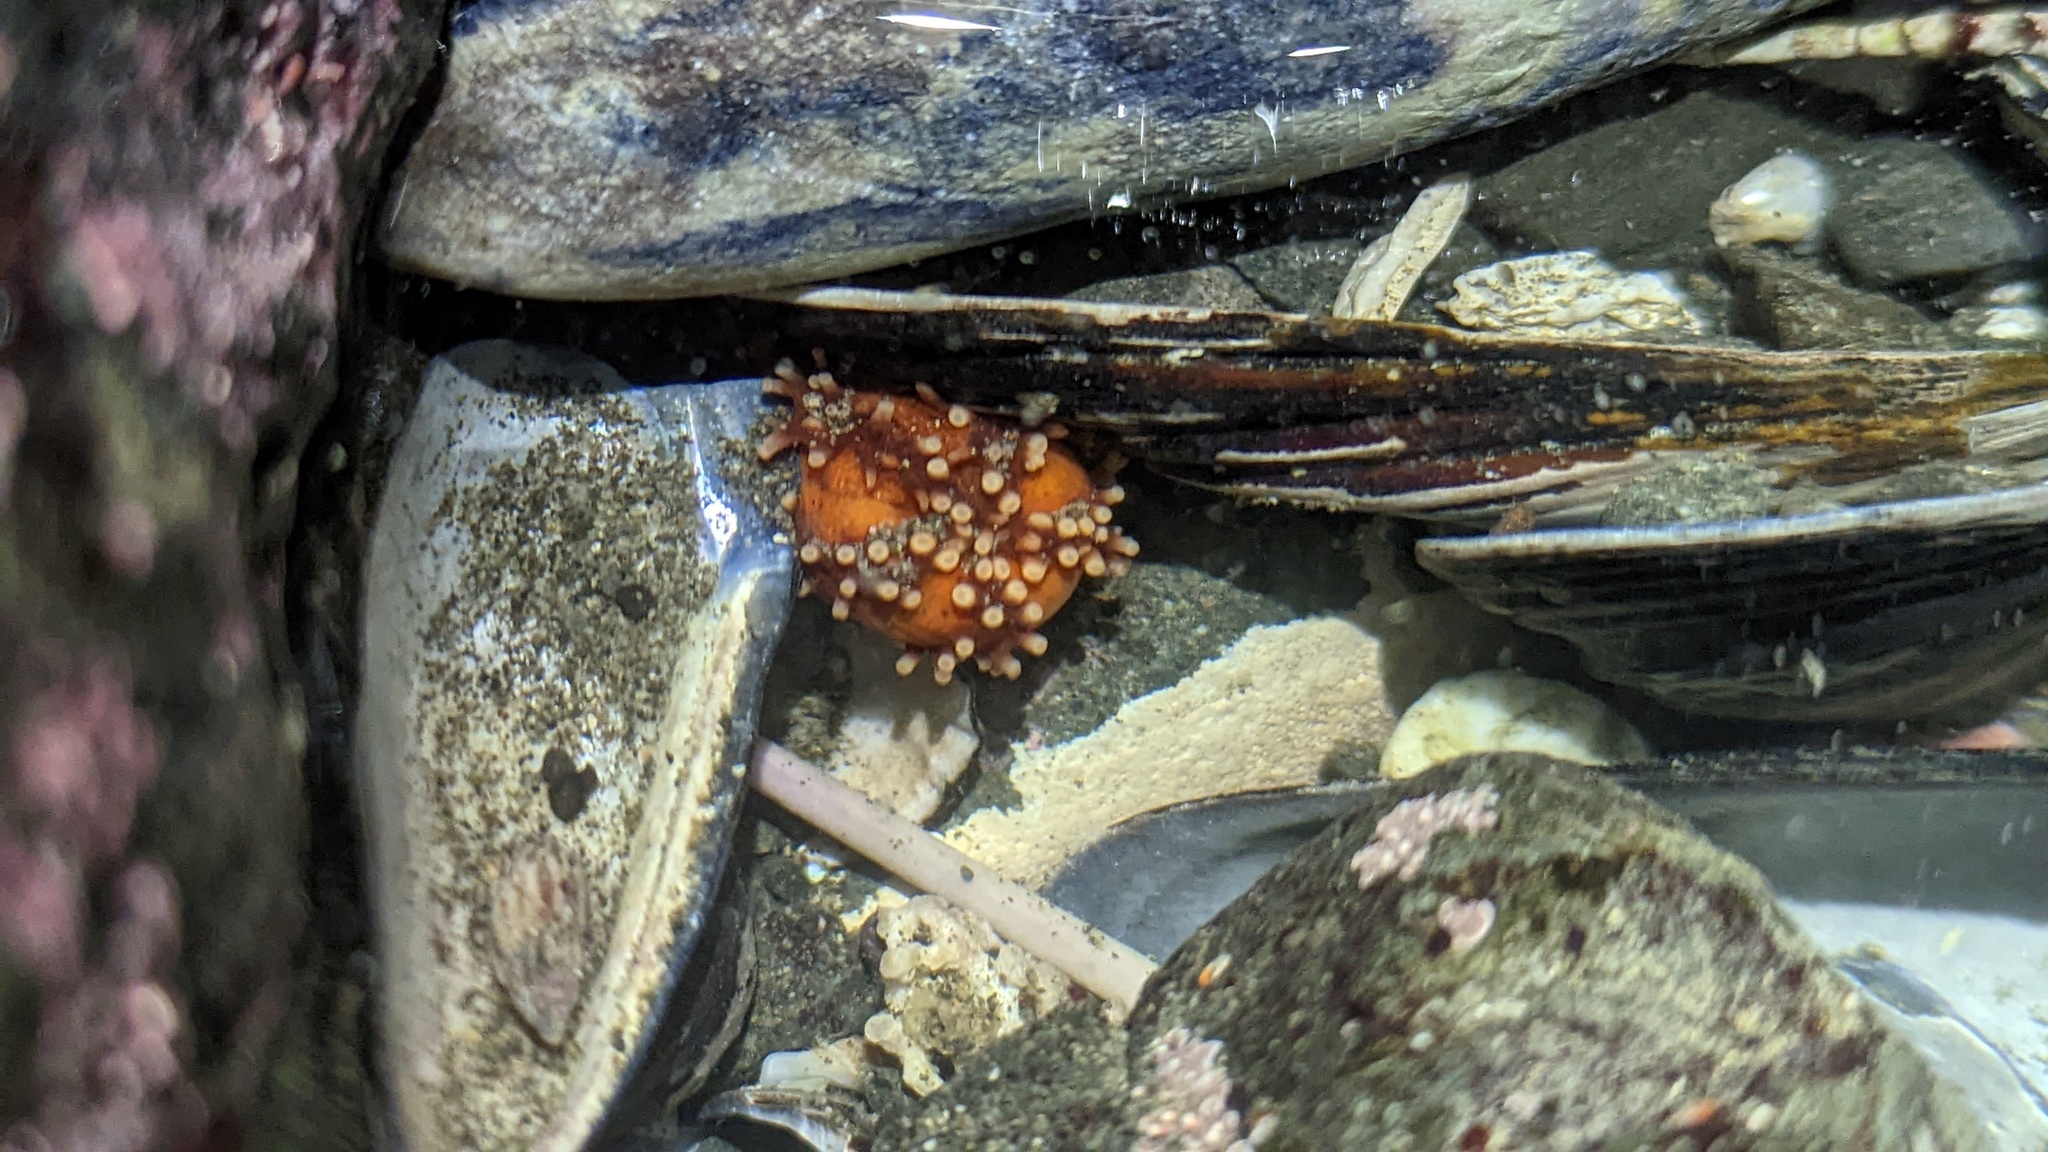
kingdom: Animalia
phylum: Echinodermata
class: Holothuroidea
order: Dendrochirotida
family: Cucumariidae
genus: Cucumaria
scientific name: Cucumaria miniata
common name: Orange sea cucumber
